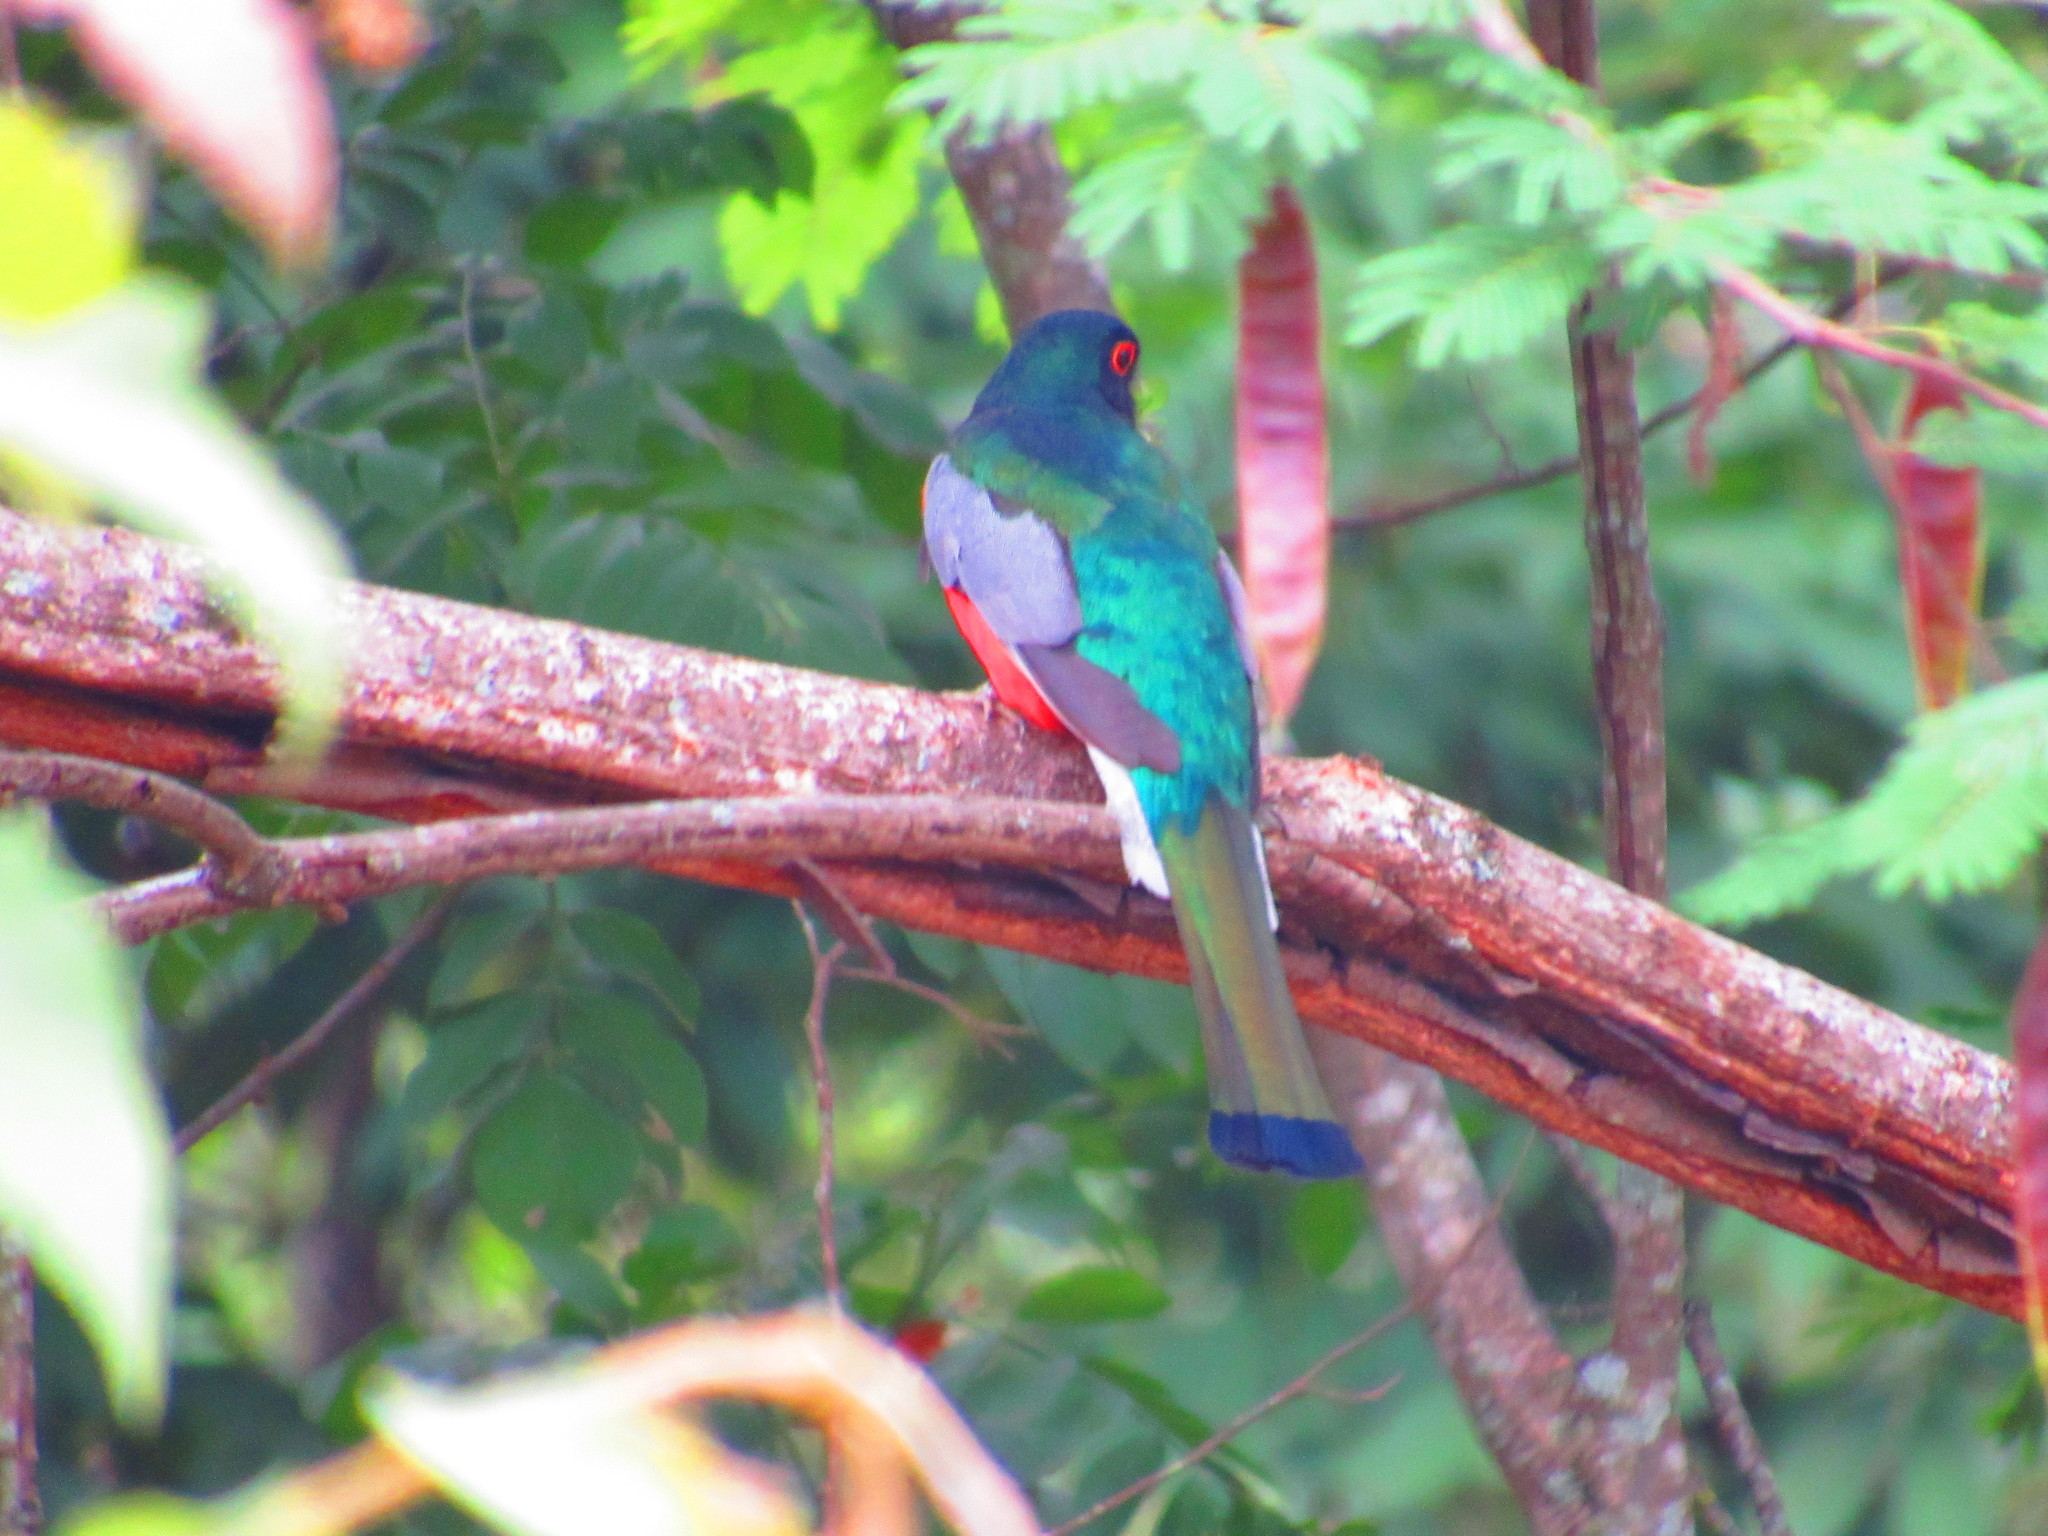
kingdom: Animalia
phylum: Chordata
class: Aves
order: Trogoniformes
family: Trogonidae
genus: Trogon
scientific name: Trogon elegans
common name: Elegant trogon
